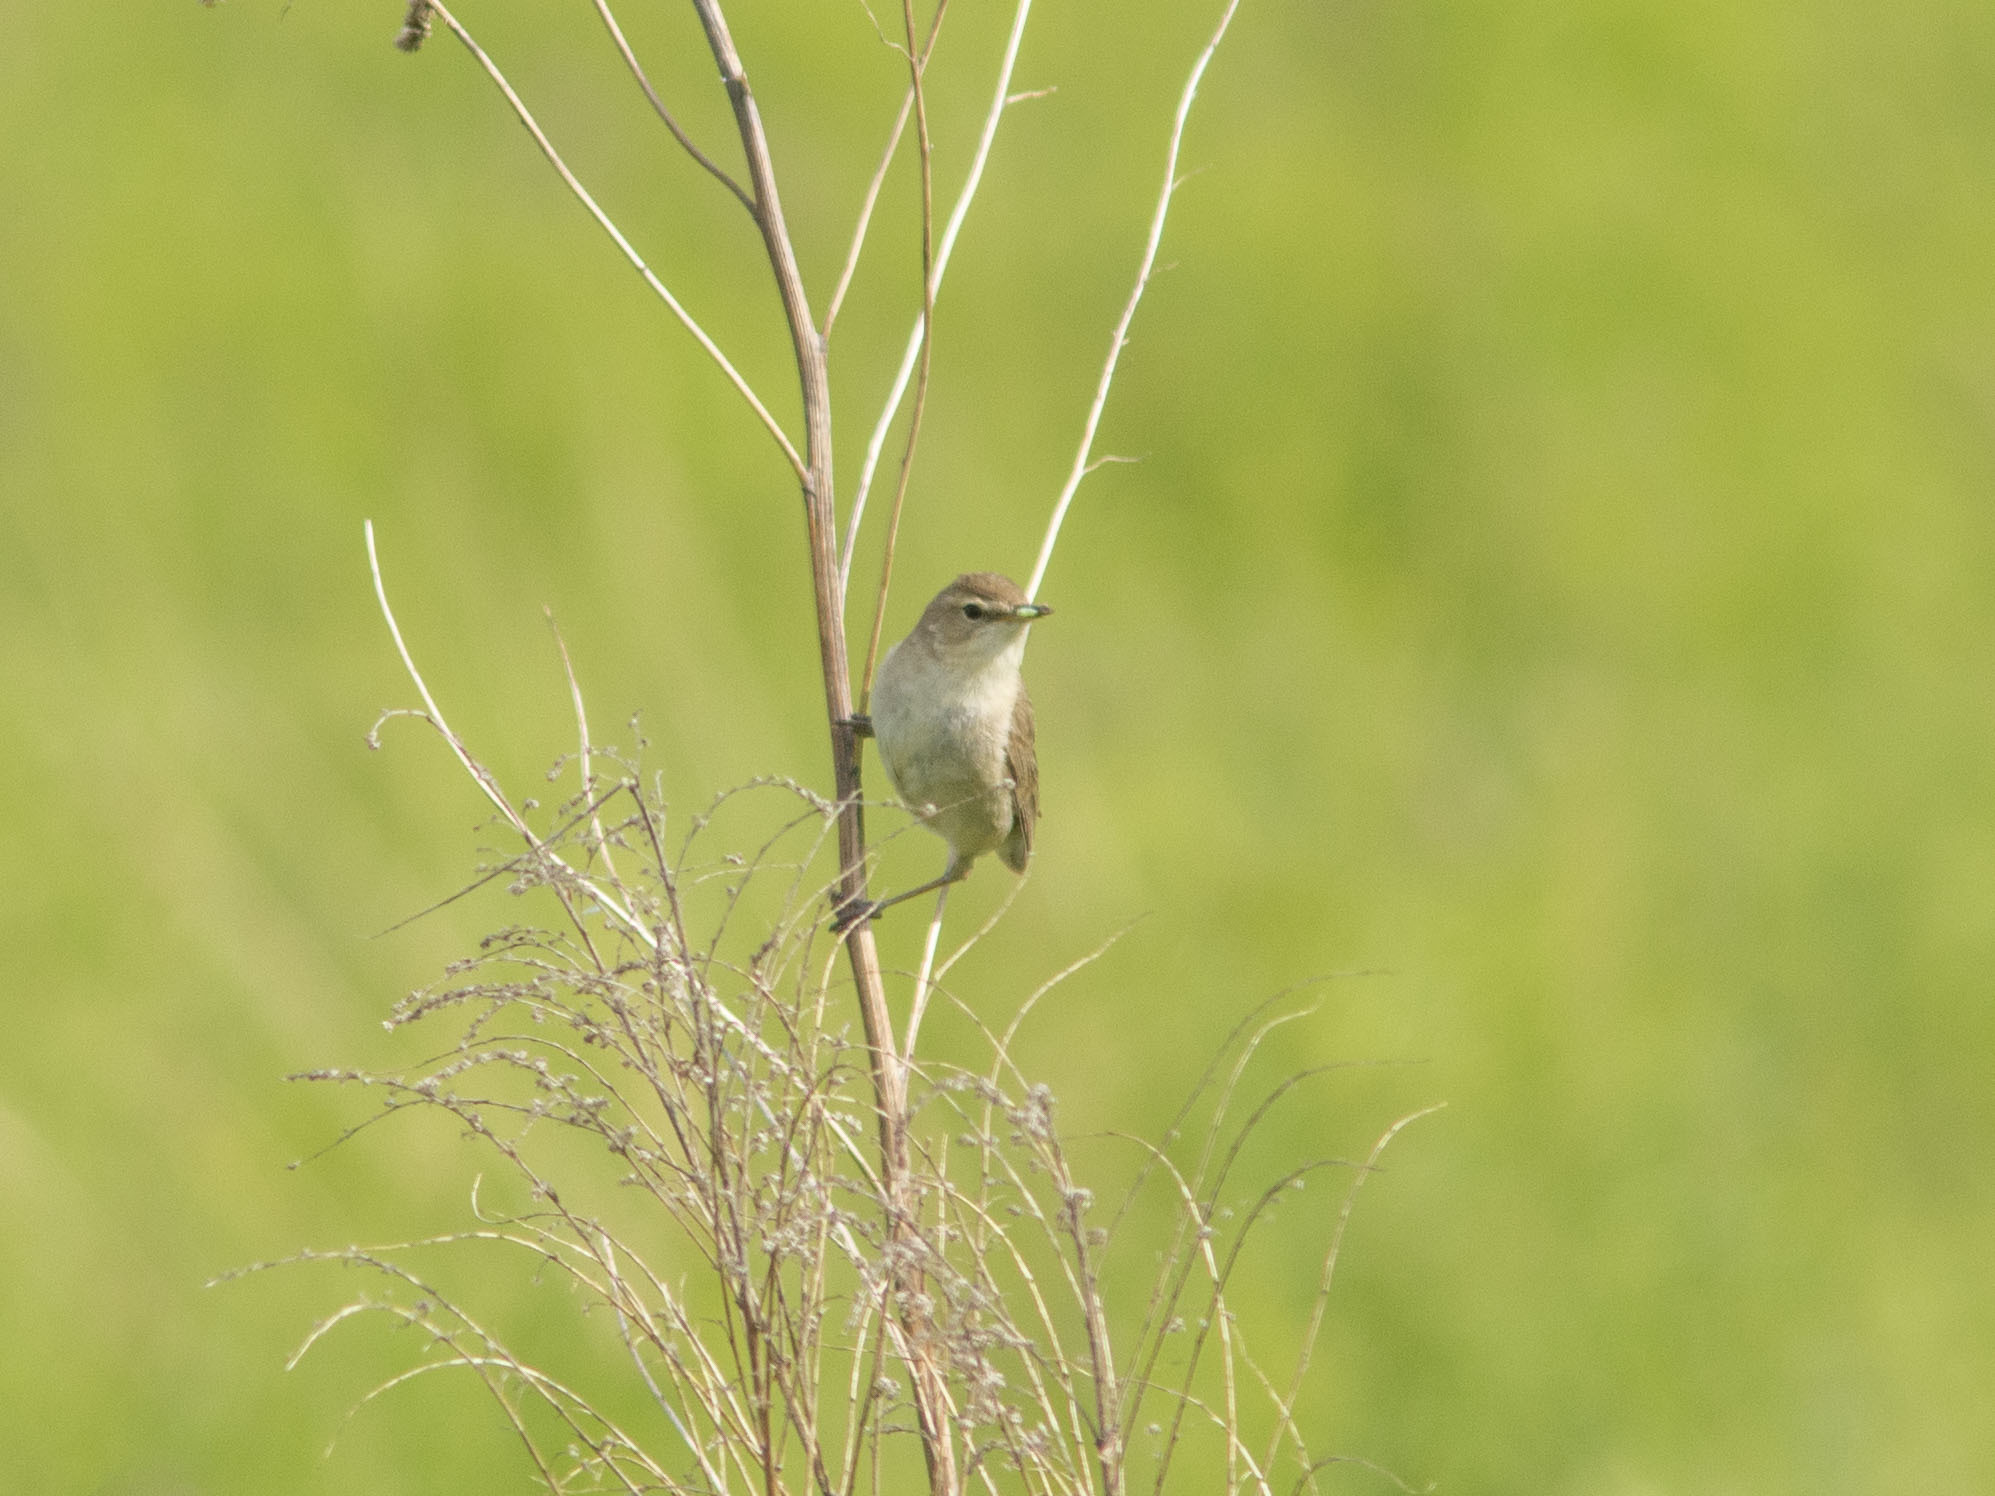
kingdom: Animalia
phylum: Chordata
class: Aves
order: Passeriformes
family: Acrocephalidae
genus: Iduna
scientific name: Iduna caligata
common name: Booted warbler
